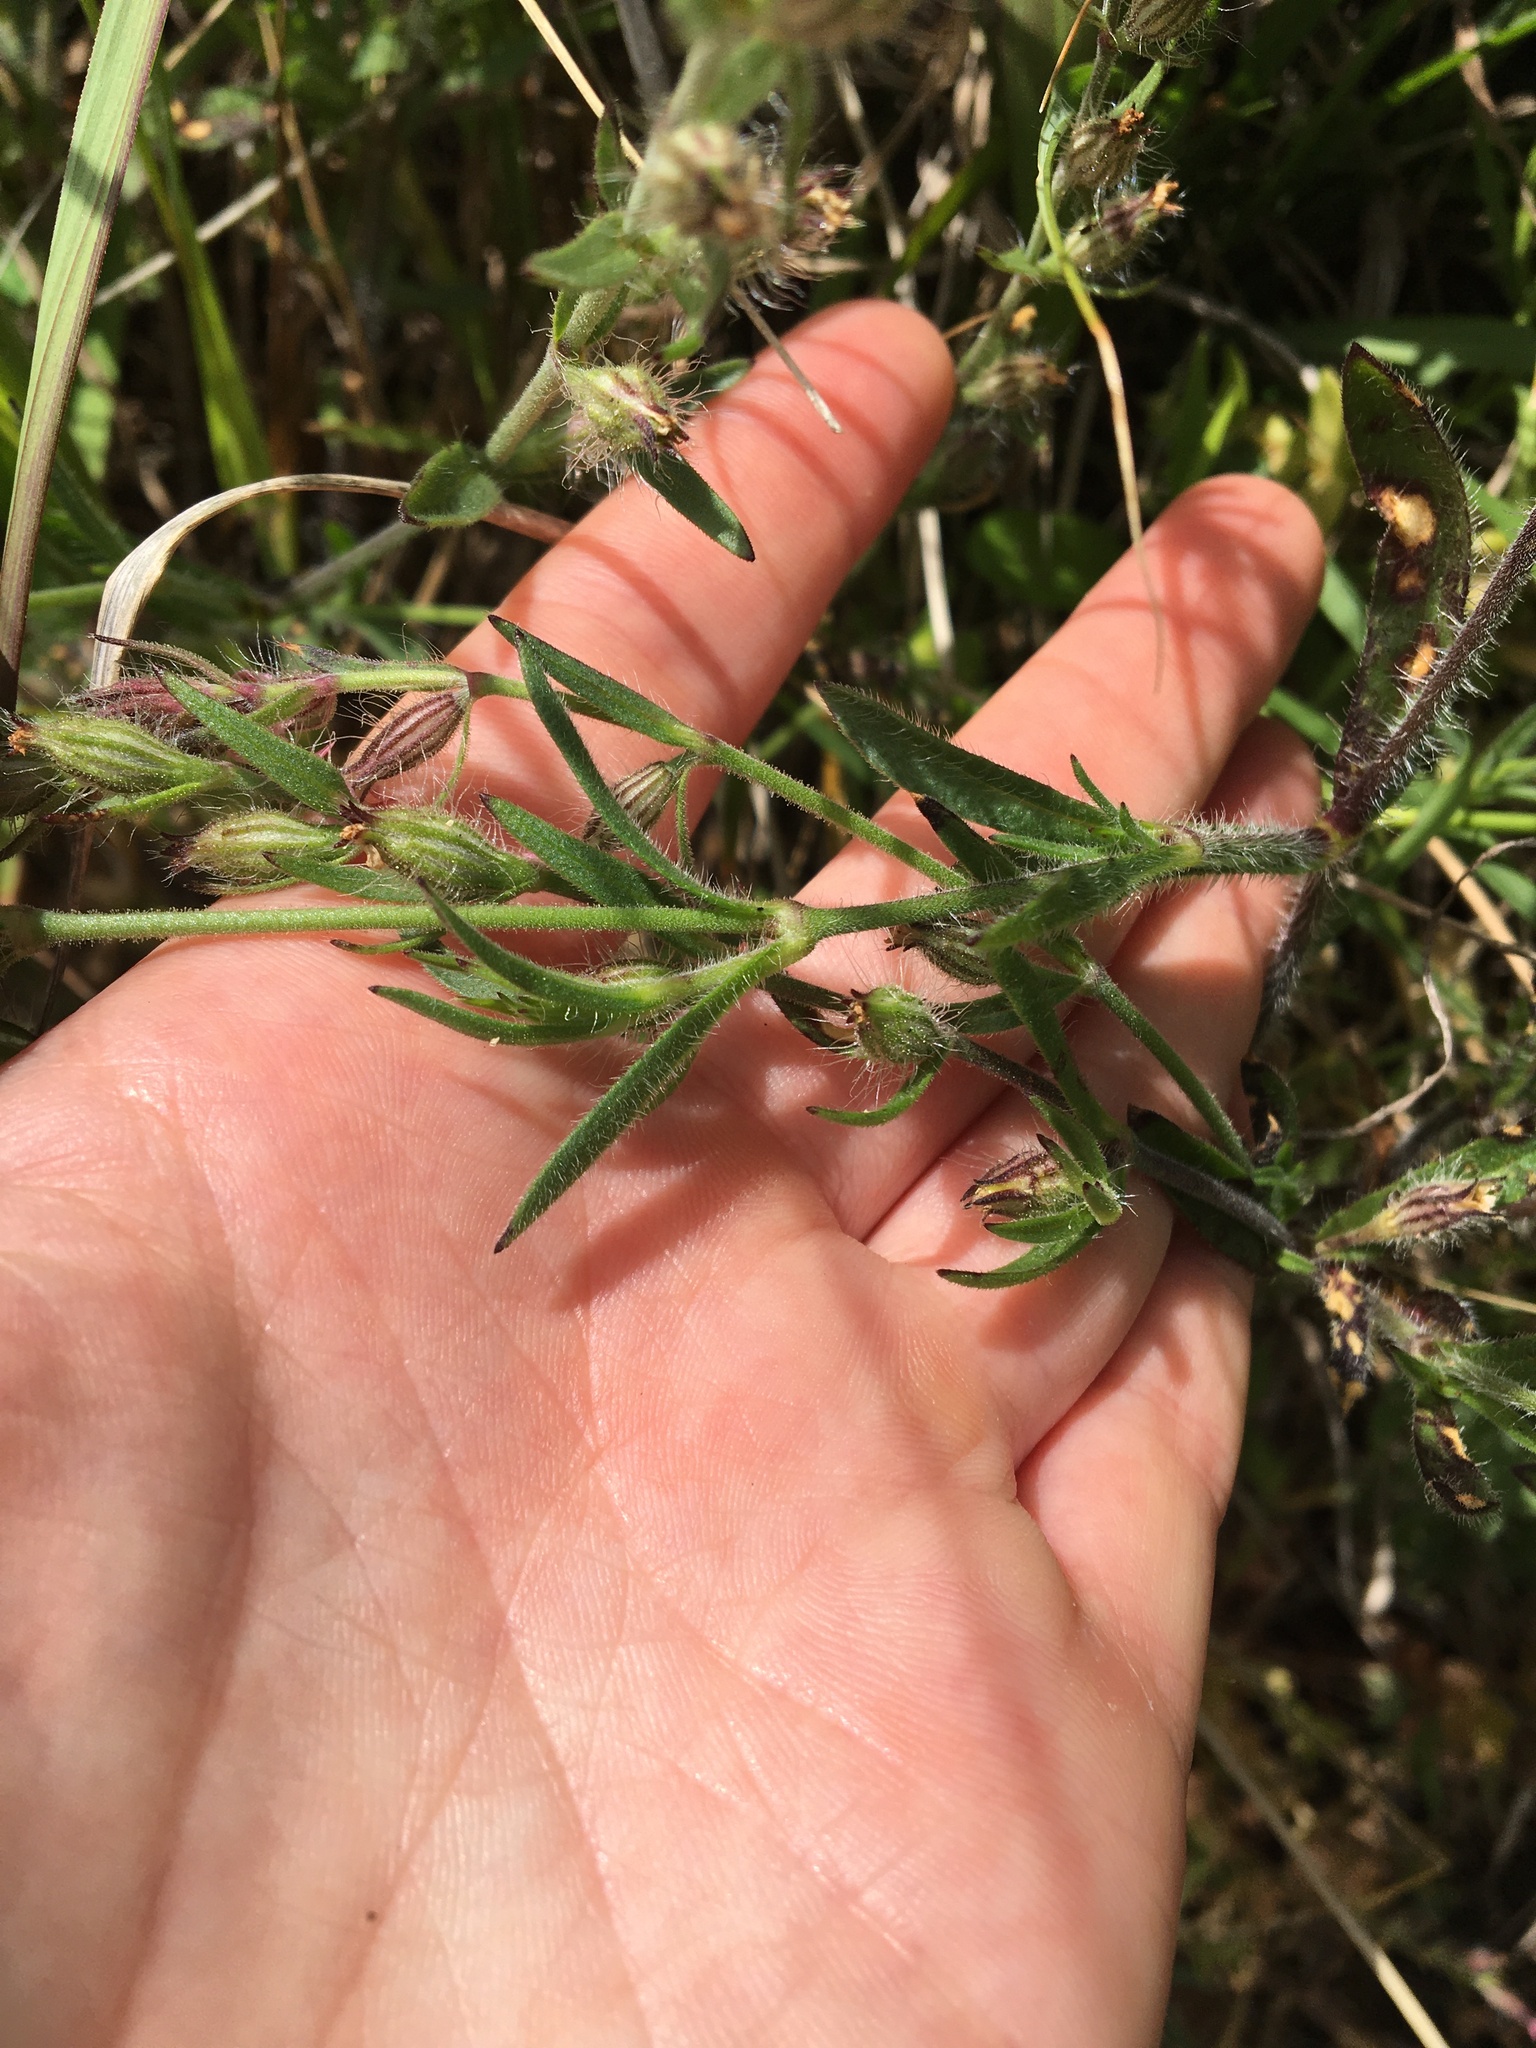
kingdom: Plantae
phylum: Tracheophyta
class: Magnoliopsida
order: Caryophyllales
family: Caryophyllaceae
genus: Silene
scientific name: Silene gallica
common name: Small-flowered catchfly
